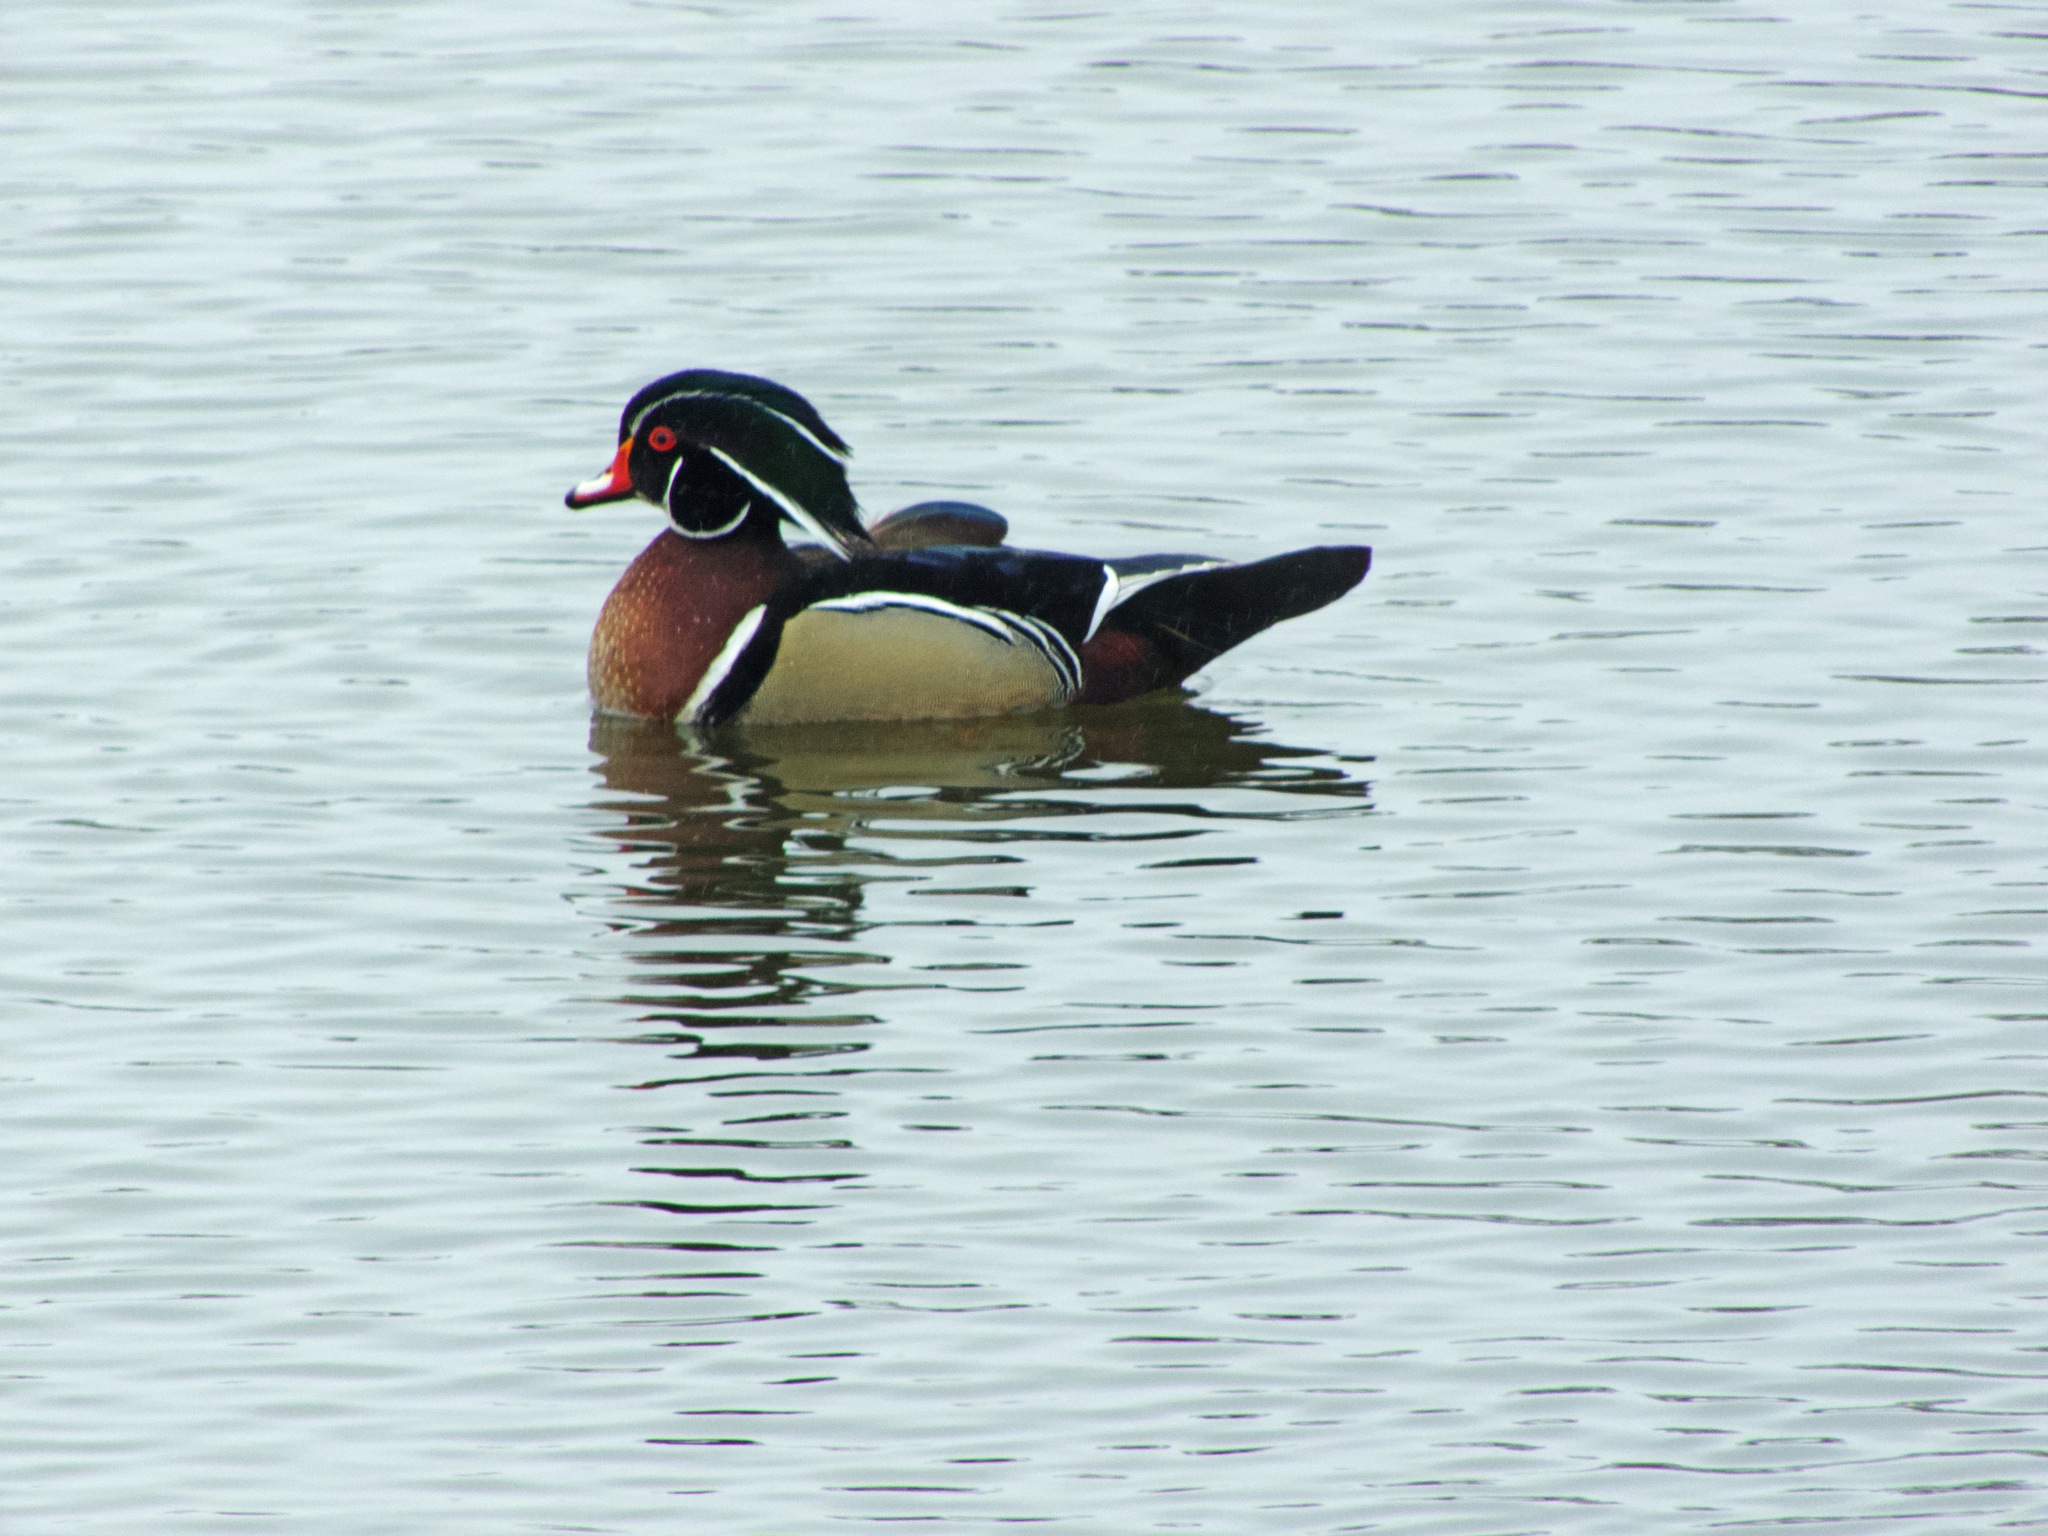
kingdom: Animalia
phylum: Chordata
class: Aves
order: Anseriformes
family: Anatidae
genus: Aix
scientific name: Aix sponsa
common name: Wood duck
